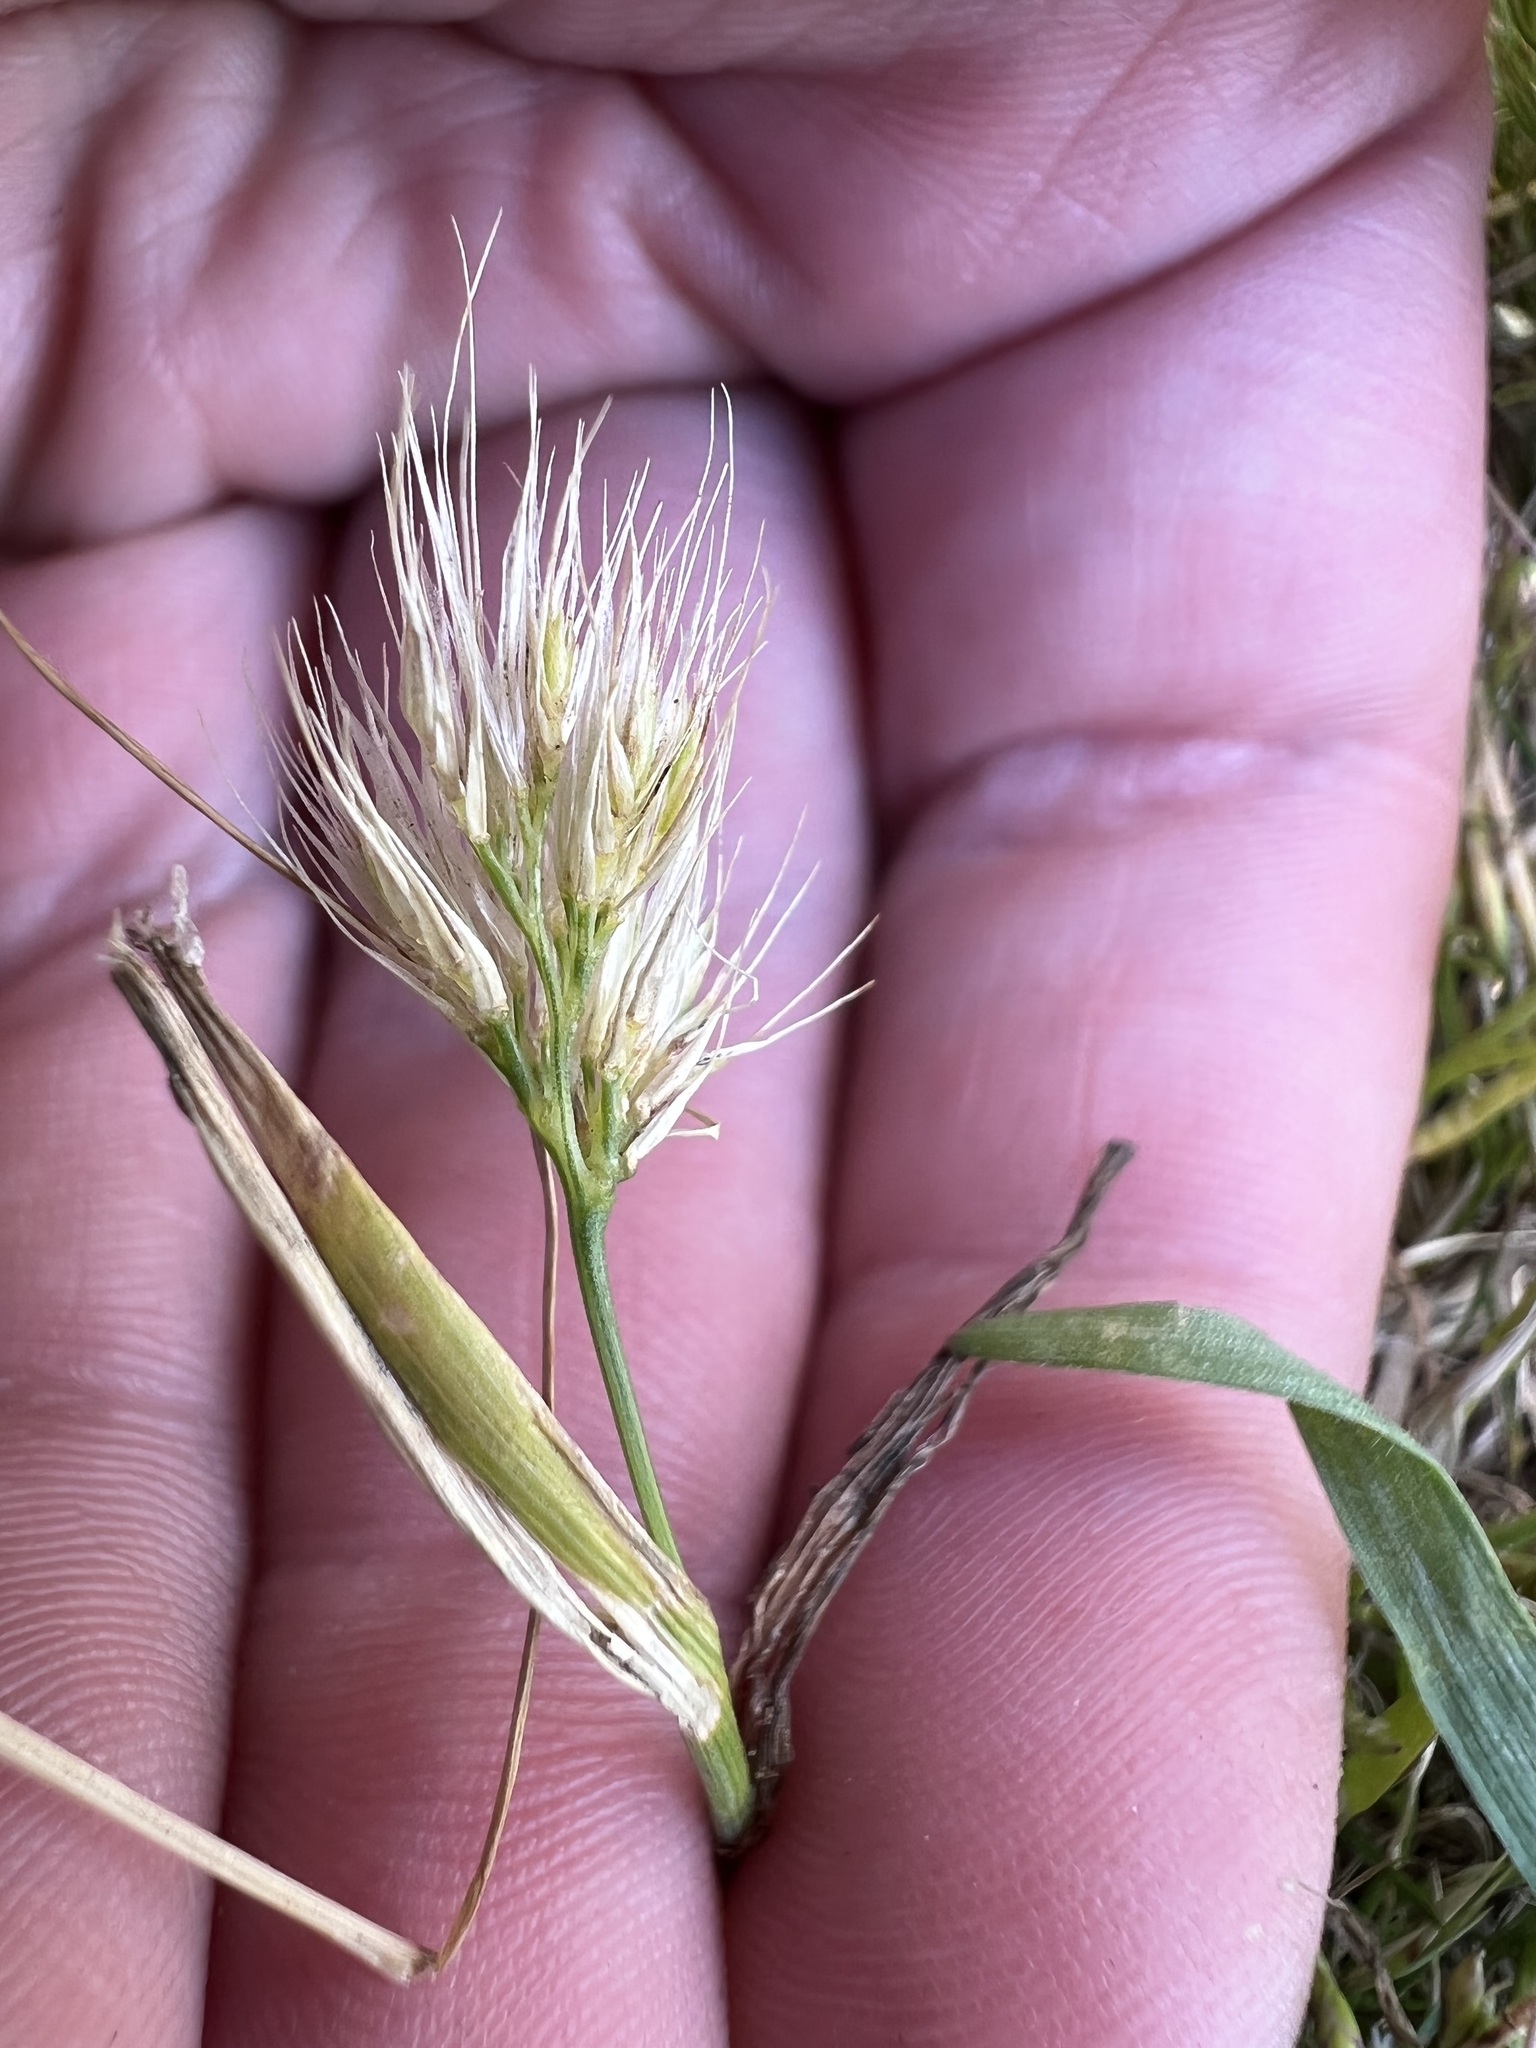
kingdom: Plantae
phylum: Tracheophyta
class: Liliopsida
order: Poales
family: Poaceae
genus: Cynosurus
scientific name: Cynosurus echinatus
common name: Rough dog's-tail
